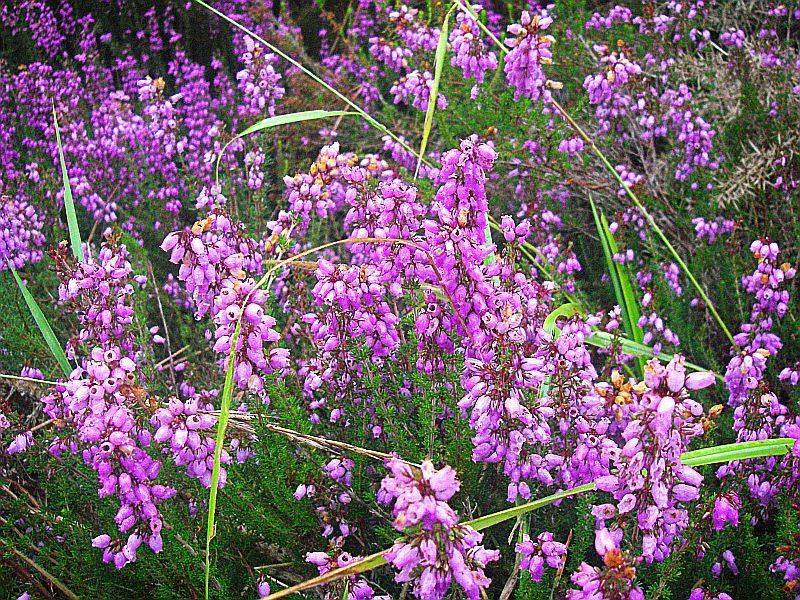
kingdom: Plantae
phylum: Tracheophyta
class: Magnoliopsida
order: Ericales
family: Ericaceae
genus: Erica
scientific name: Erica cinerea
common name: Bell heather
